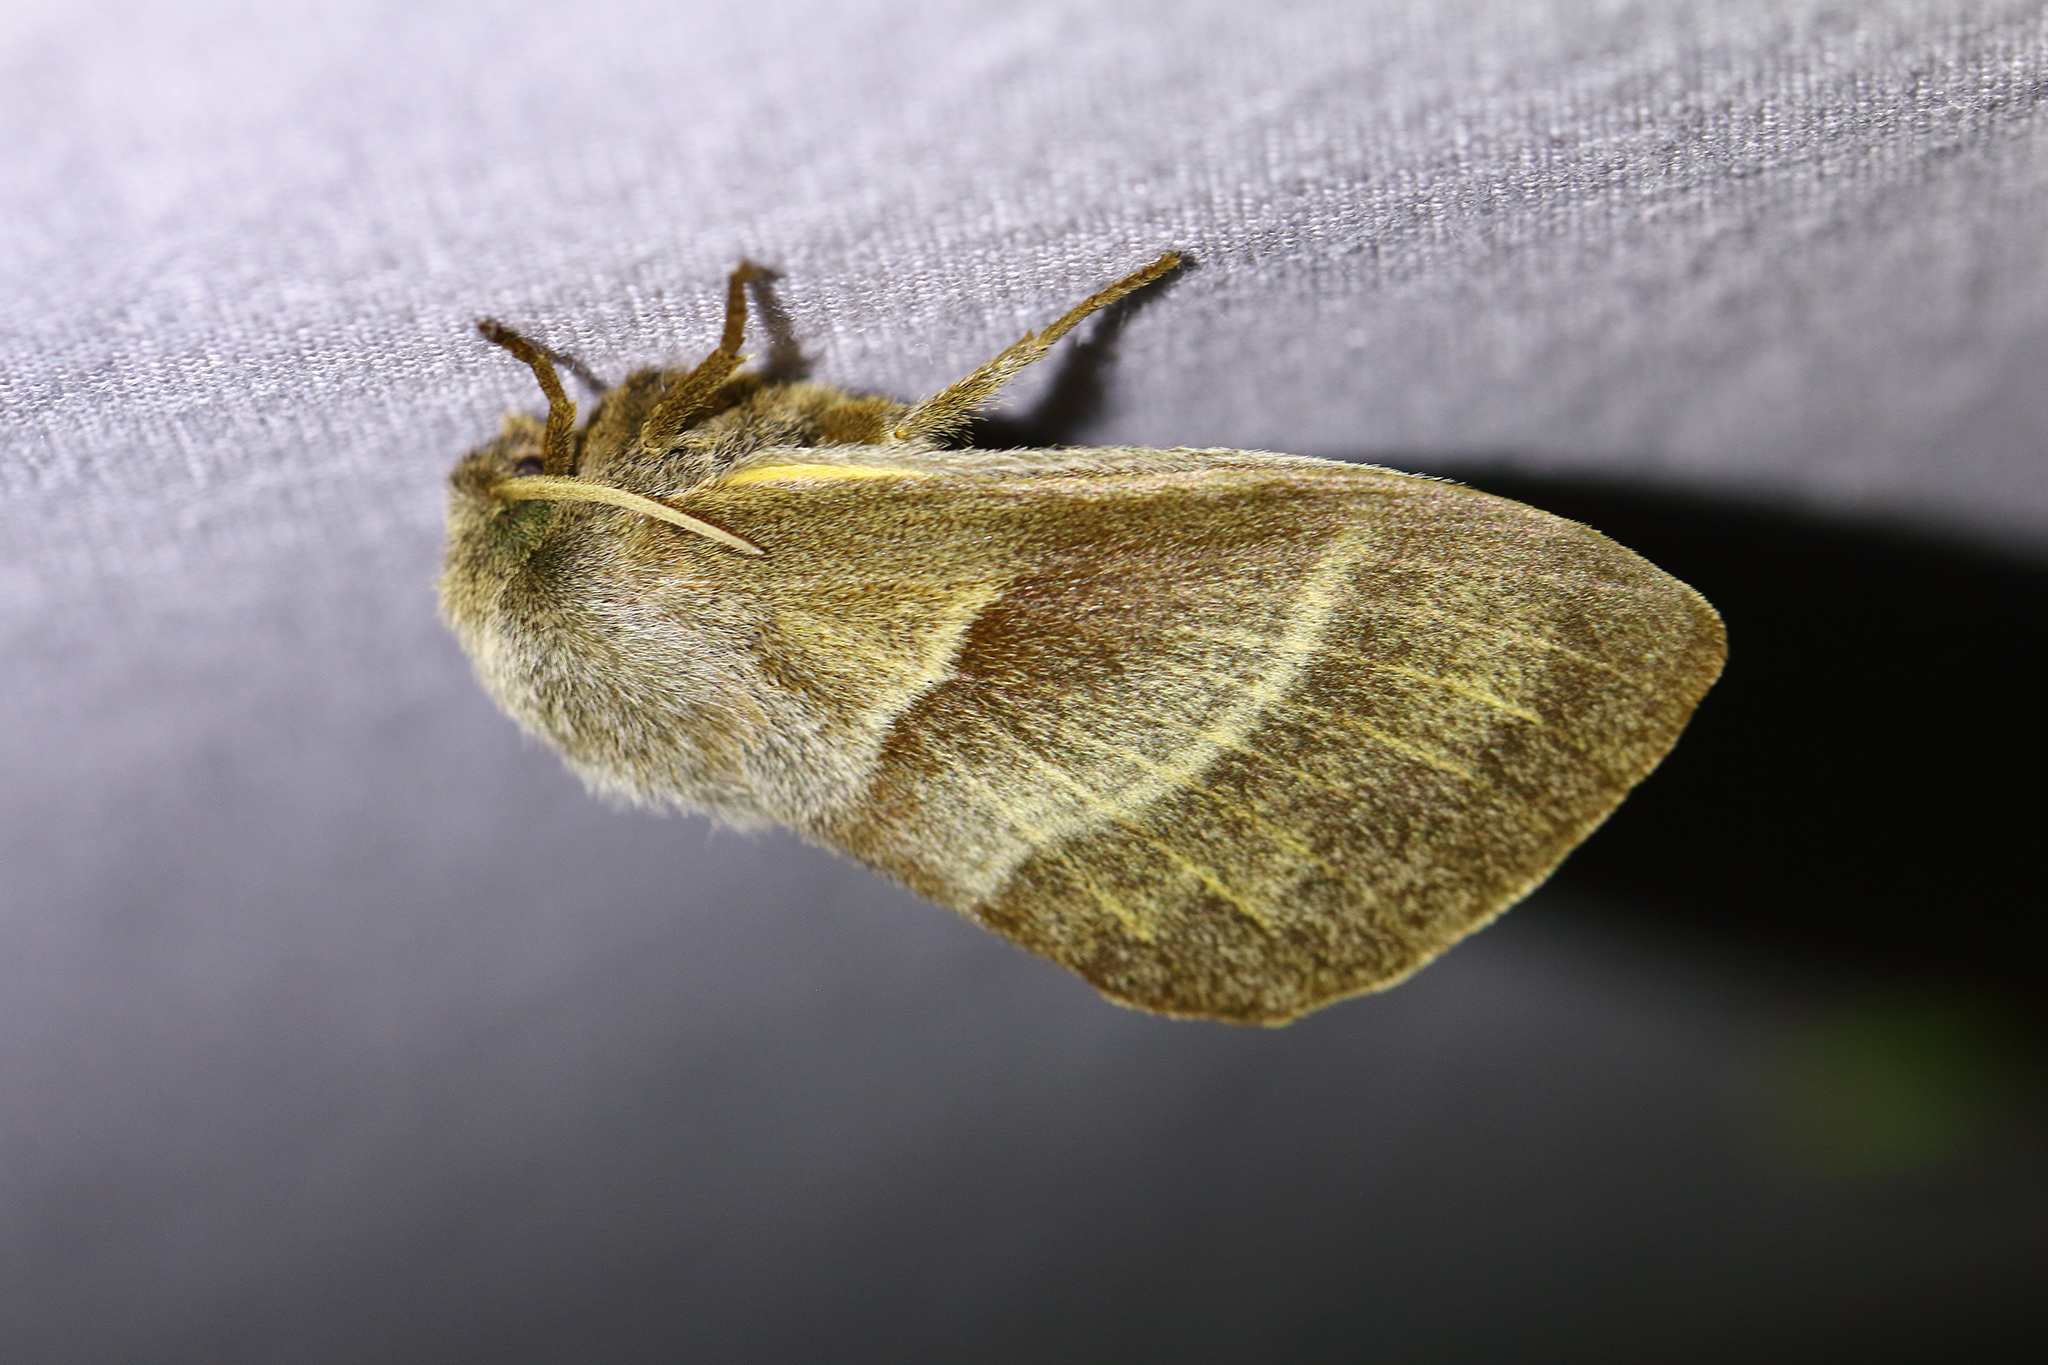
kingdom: Animalia
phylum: Arthropoda
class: Insecta
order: Lepidoptera
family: Lasiocampidae
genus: Macrothylacia
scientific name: Macrothylacia rubi
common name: Fox moth
